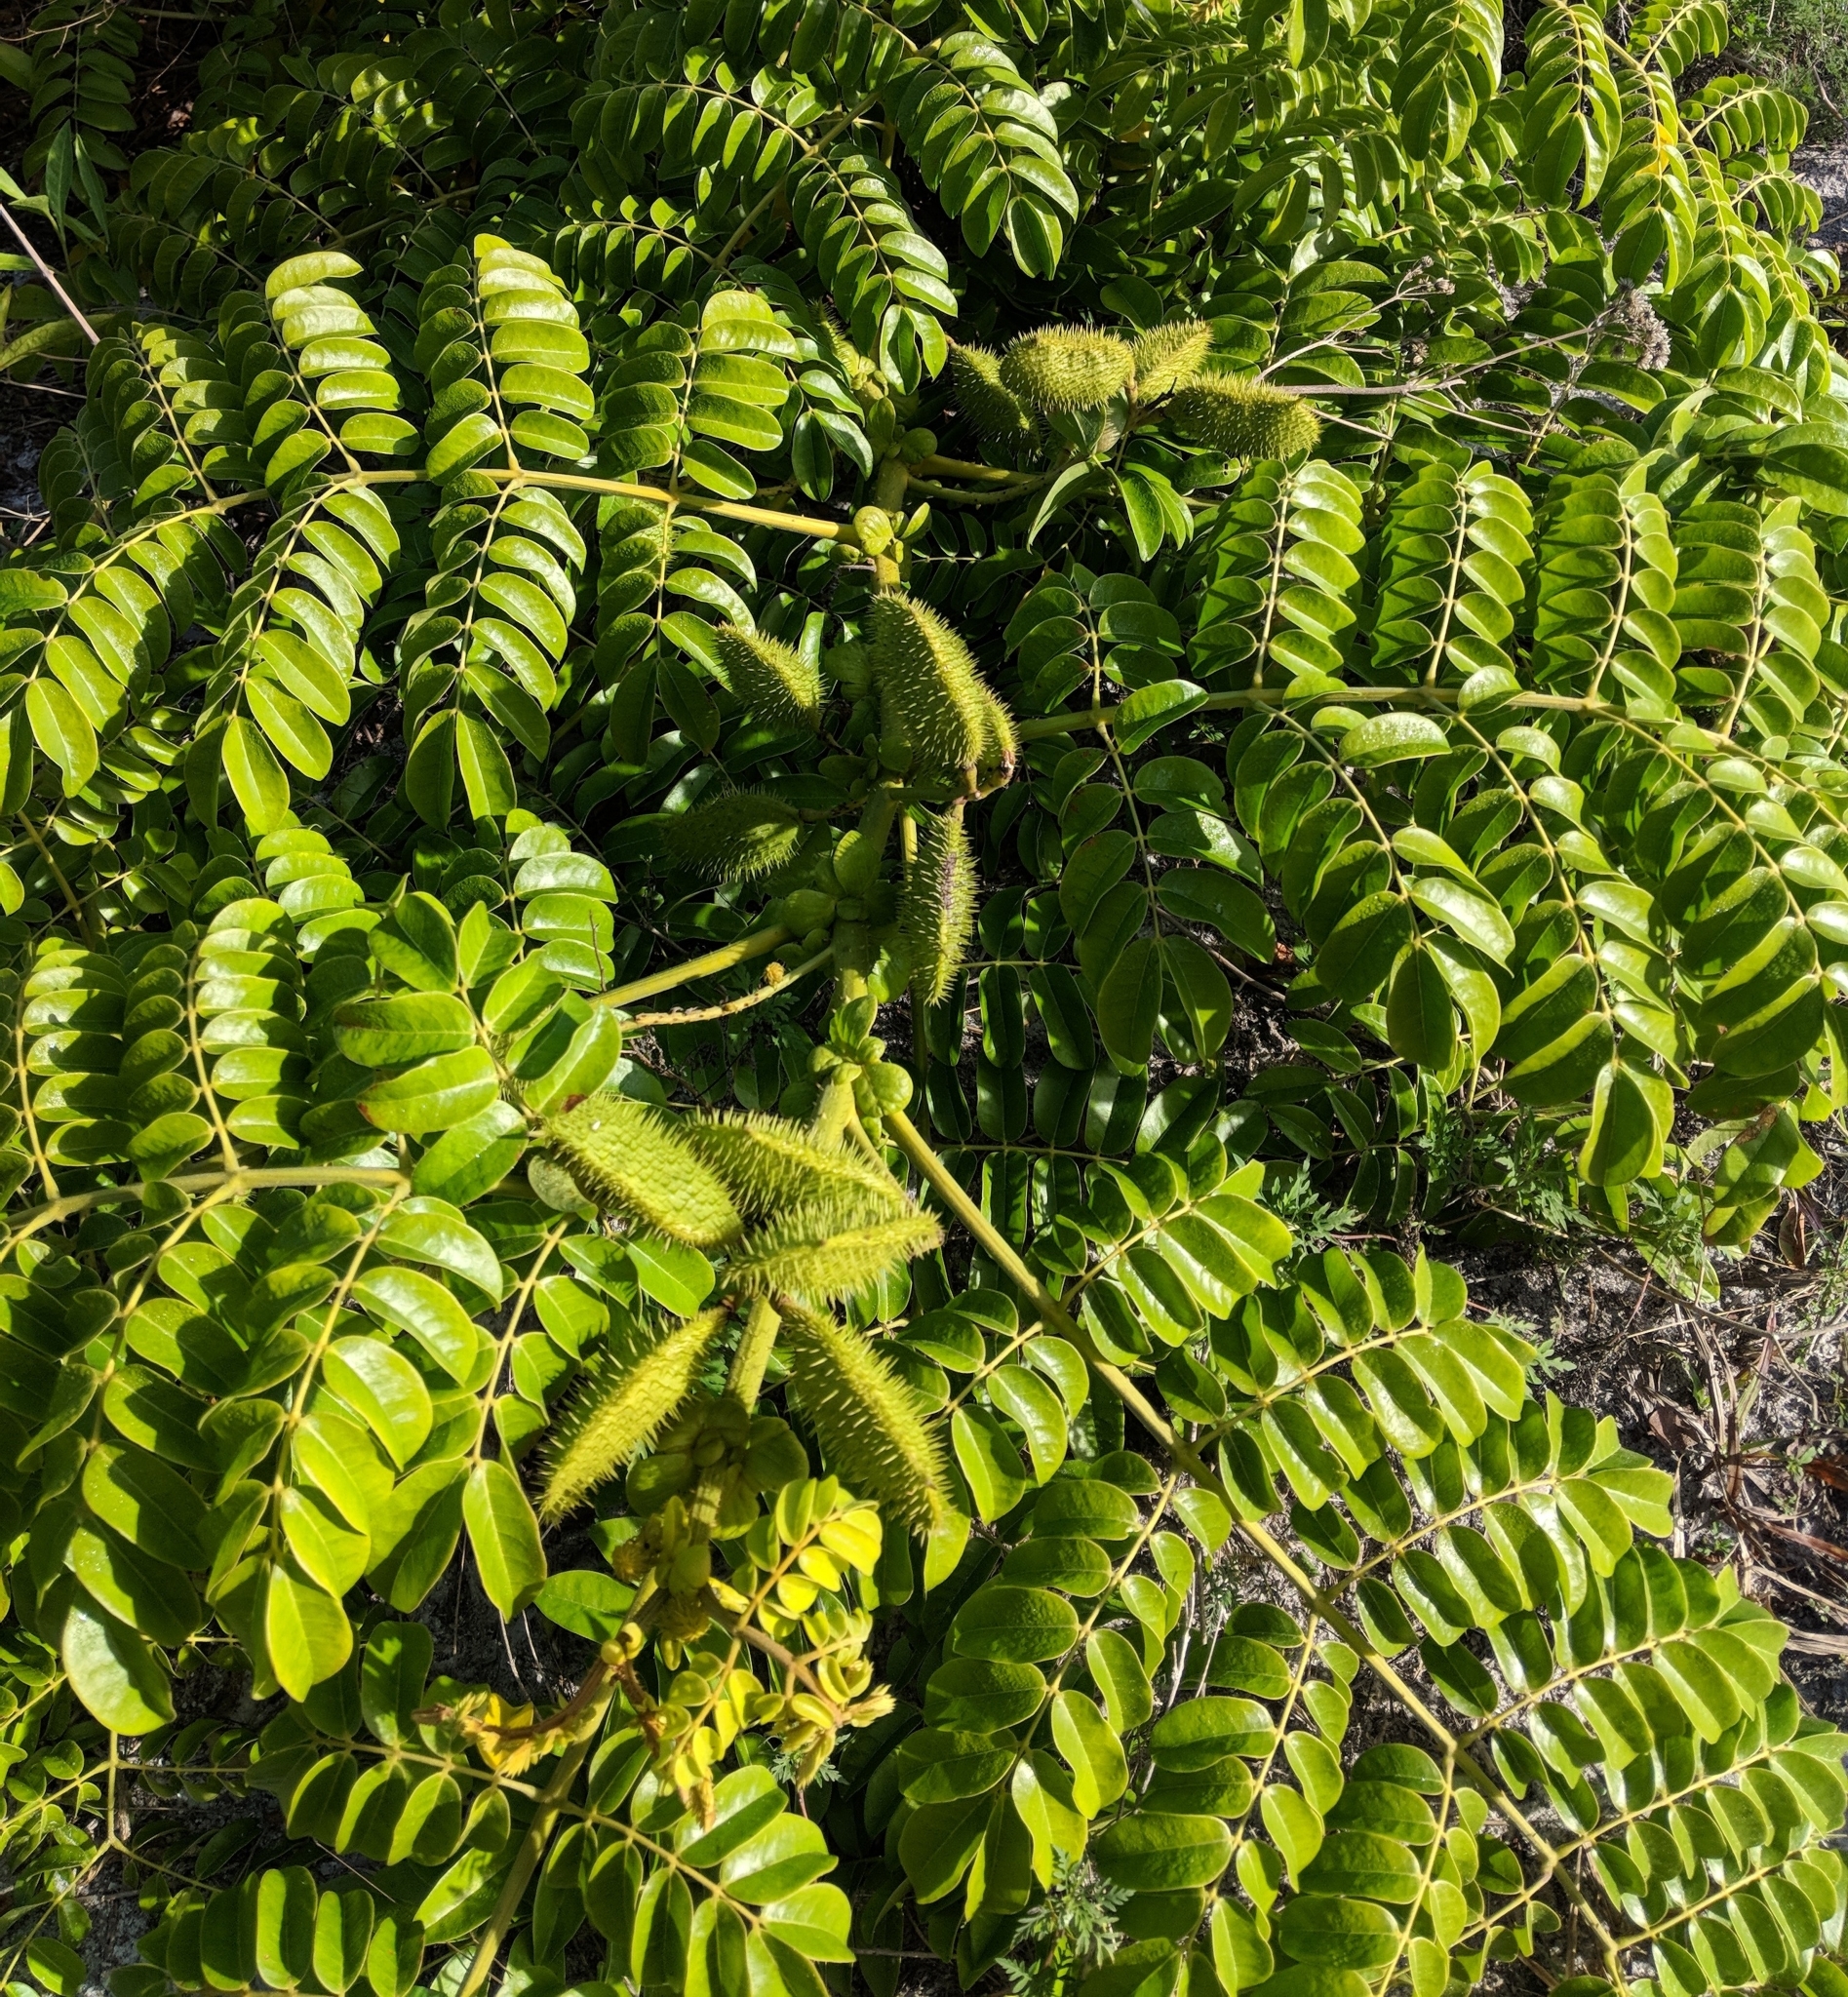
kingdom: Plantae
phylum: Tracheophyta
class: Magnoliopsida
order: Fabales
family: Fabaceae
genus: Guilandina
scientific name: Guilandina bonduc
